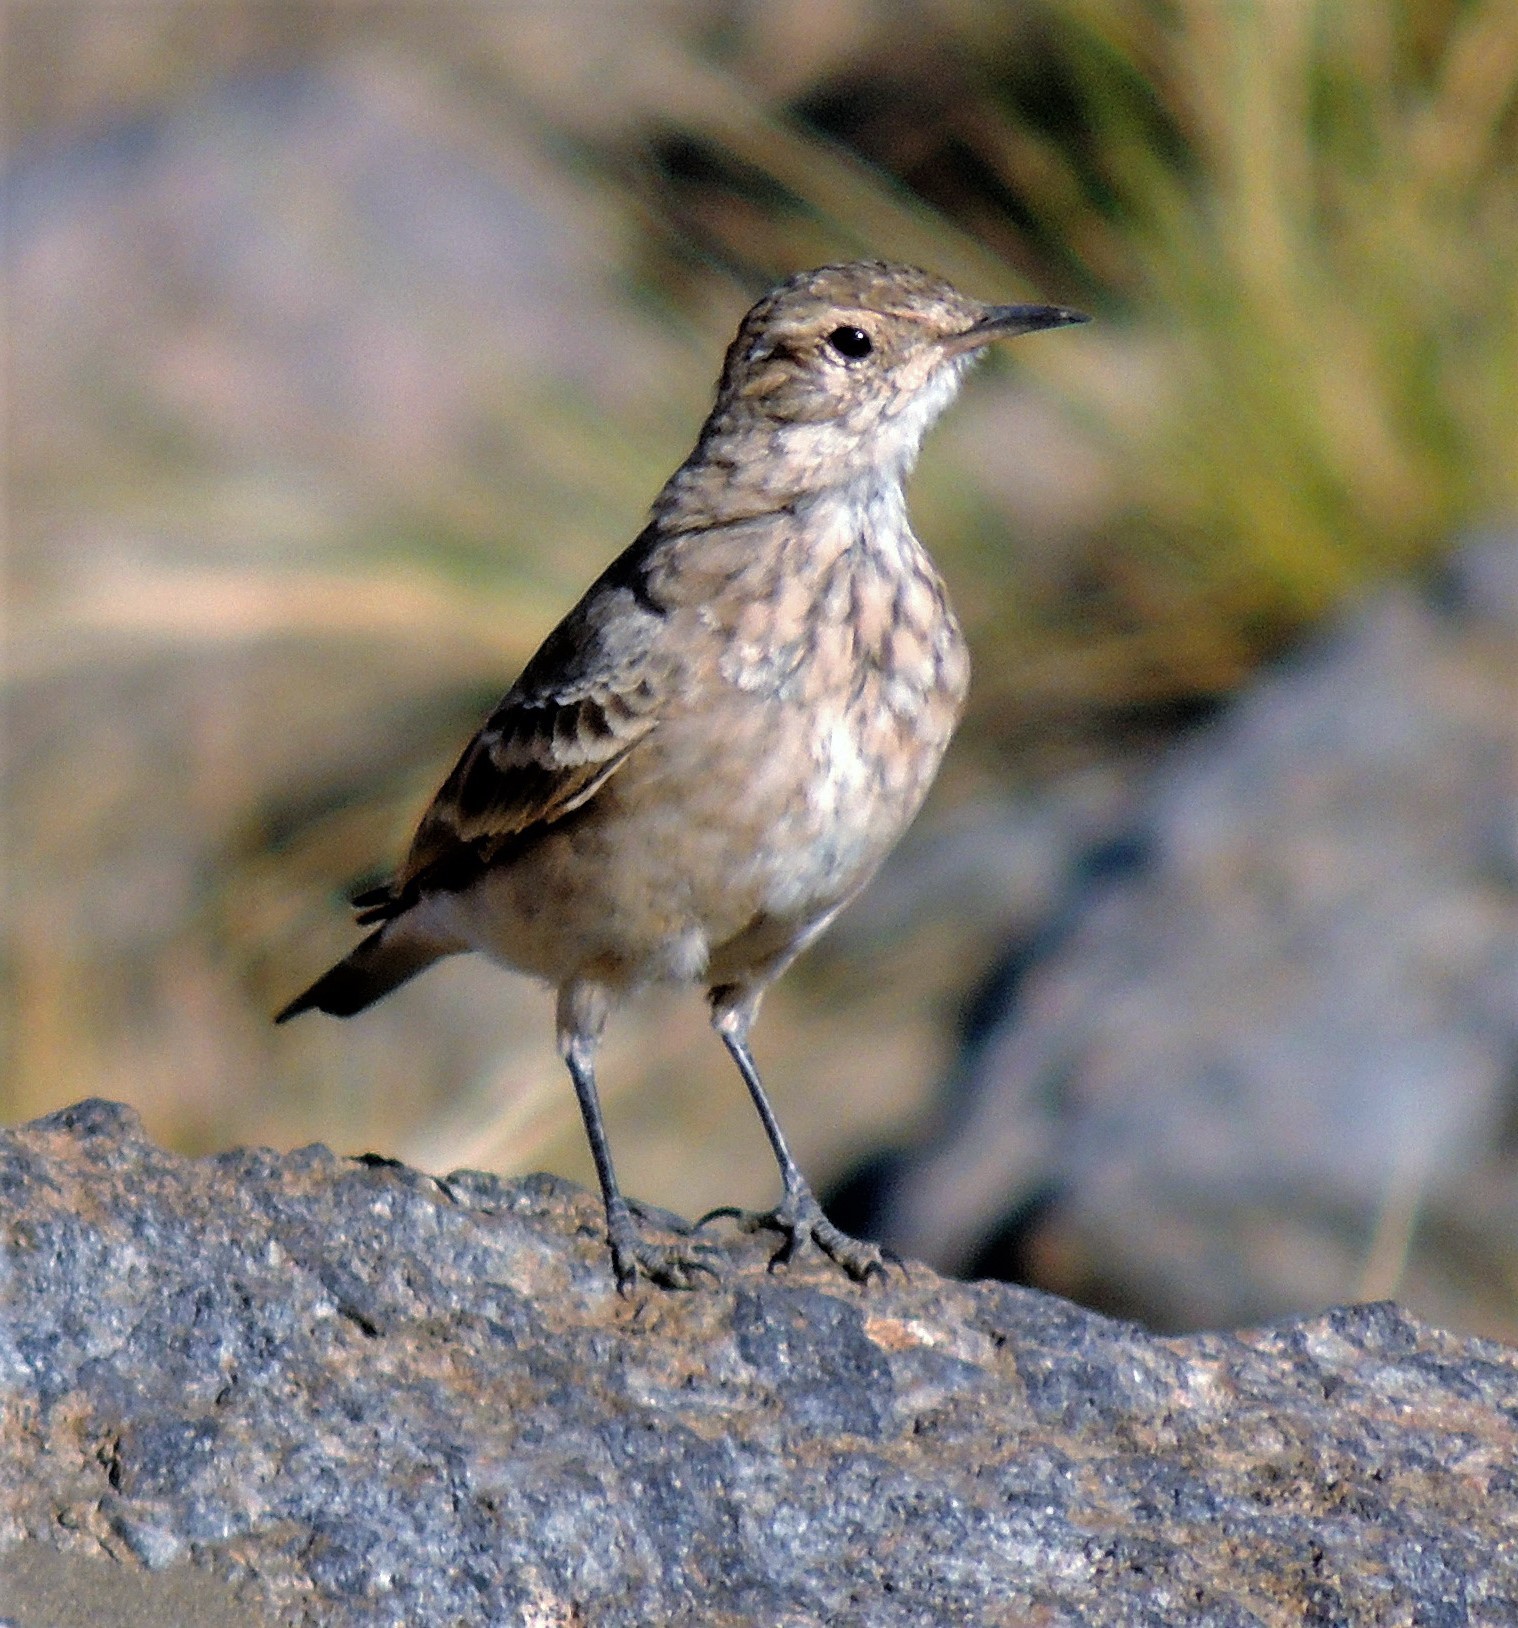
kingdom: Animalia
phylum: Chordata
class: Aves
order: Passeriformes
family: Furnariidae
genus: Geositta
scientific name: Geositta cunicularia
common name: Common miner
